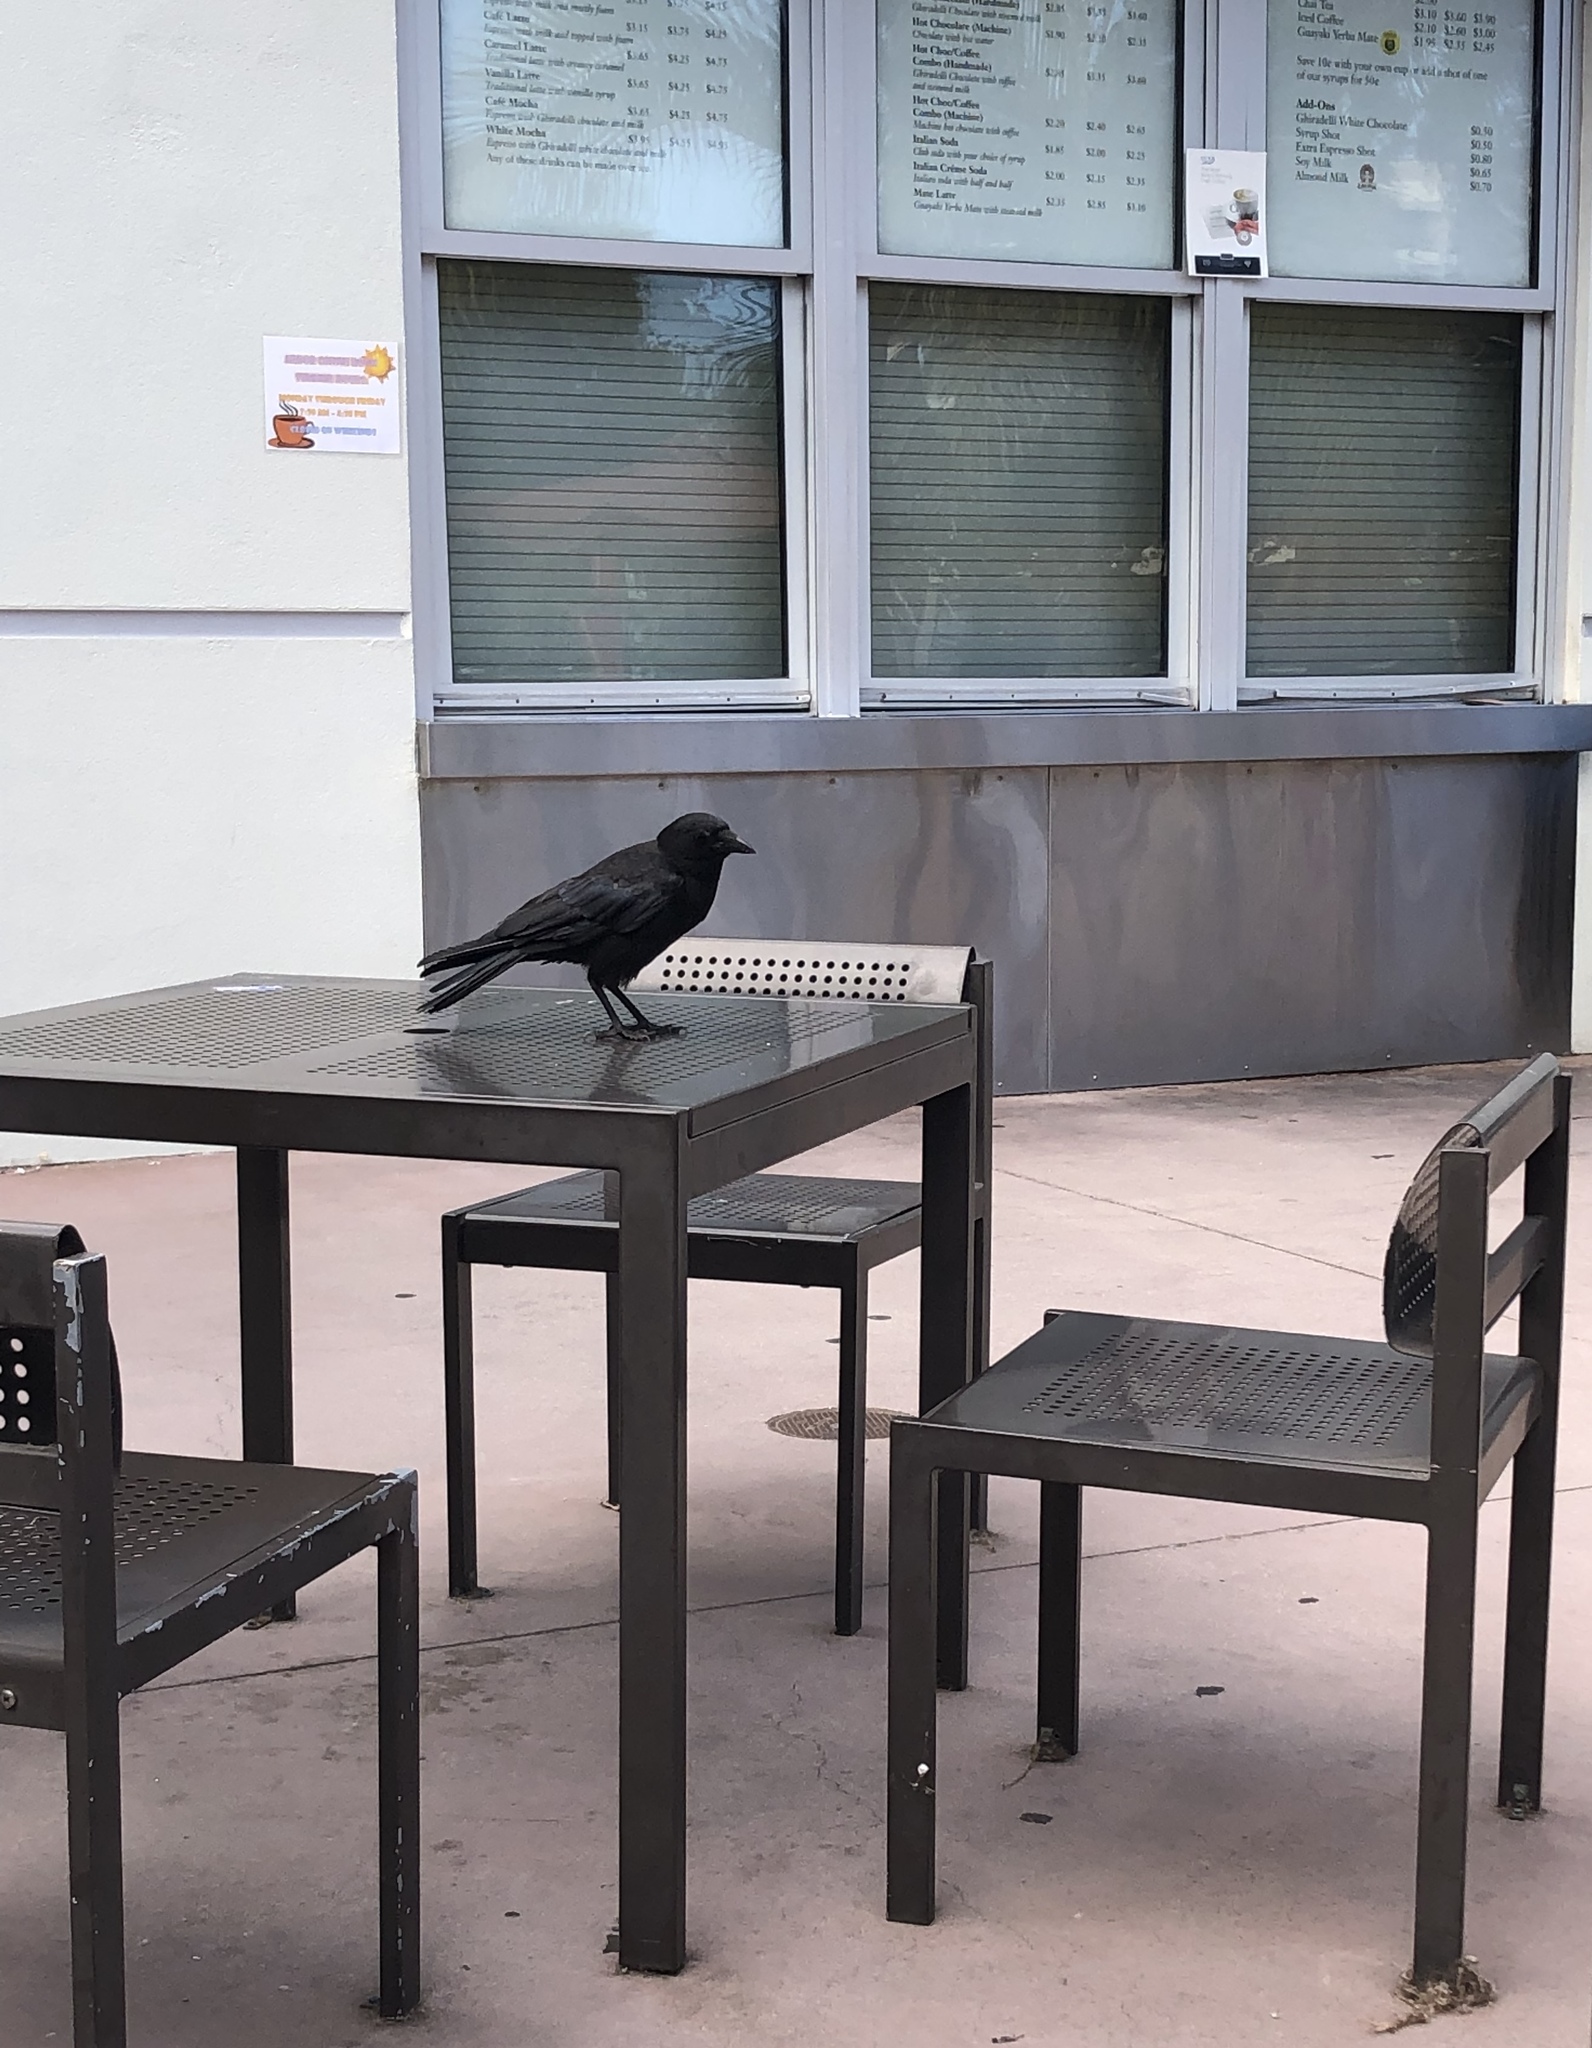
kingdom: Animalia
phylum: Chordata
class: Aves
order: Passeriformes
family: Corvidae
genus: Corvus
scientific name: Corvus brachyrhynchos
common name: American crow
